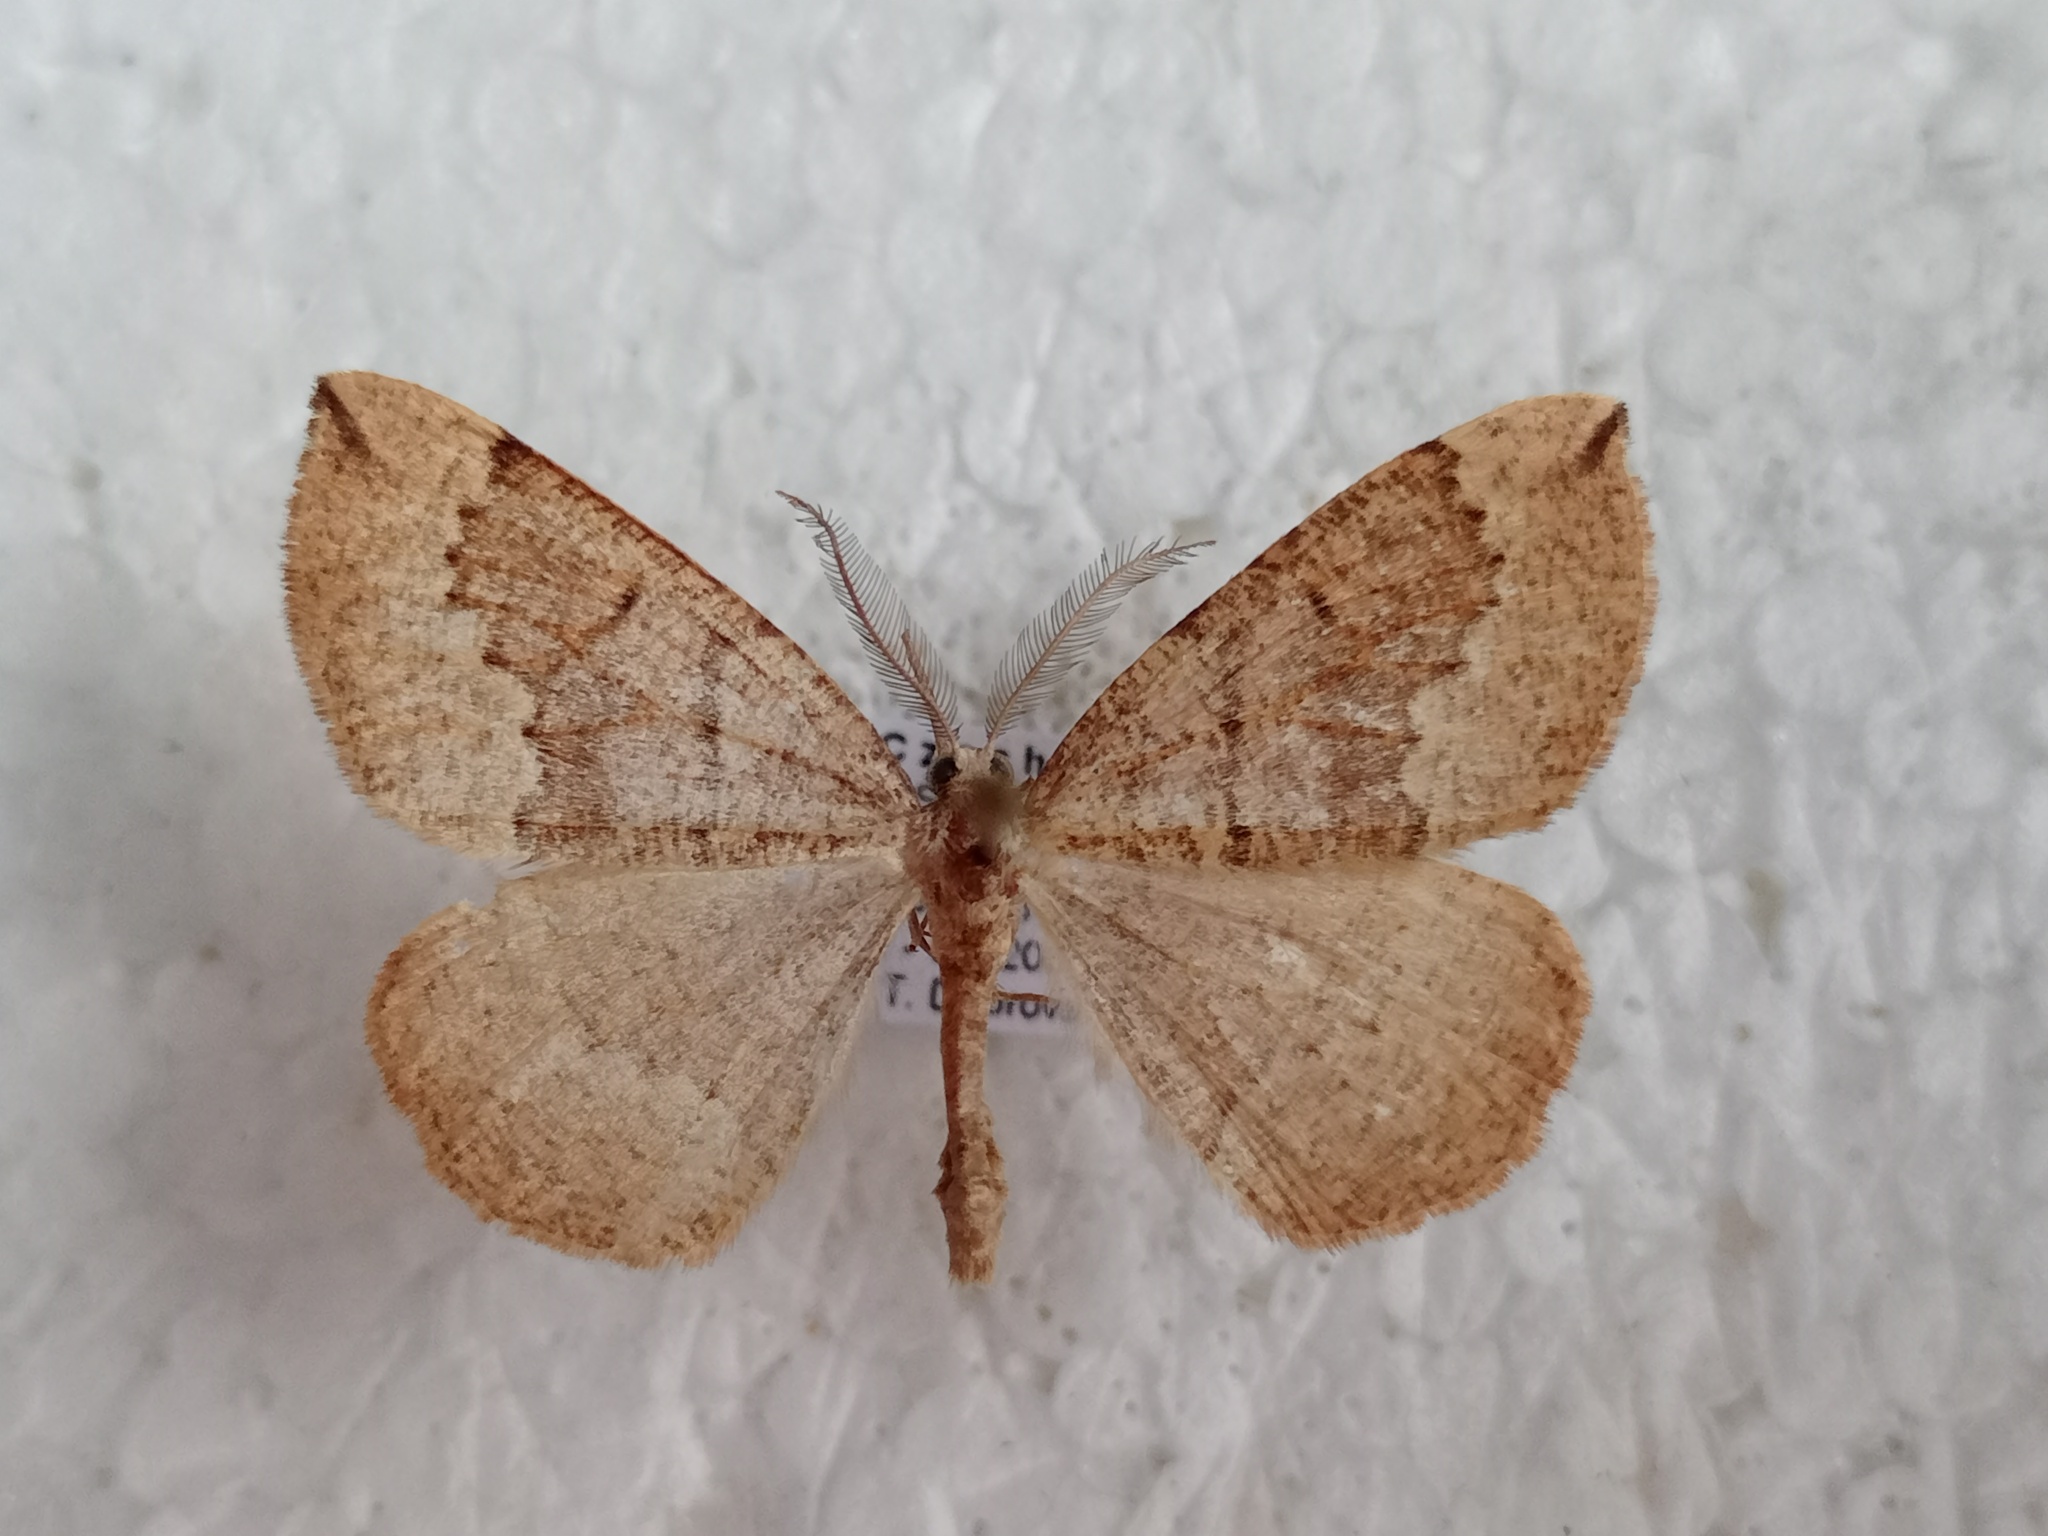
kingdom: Animalia
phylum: Arthropoda
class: Insecta
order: Lepidoptera
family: Geometridae
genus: Pungeleria
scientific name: Pungeleria capreolaria
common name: Banded pine carpet
